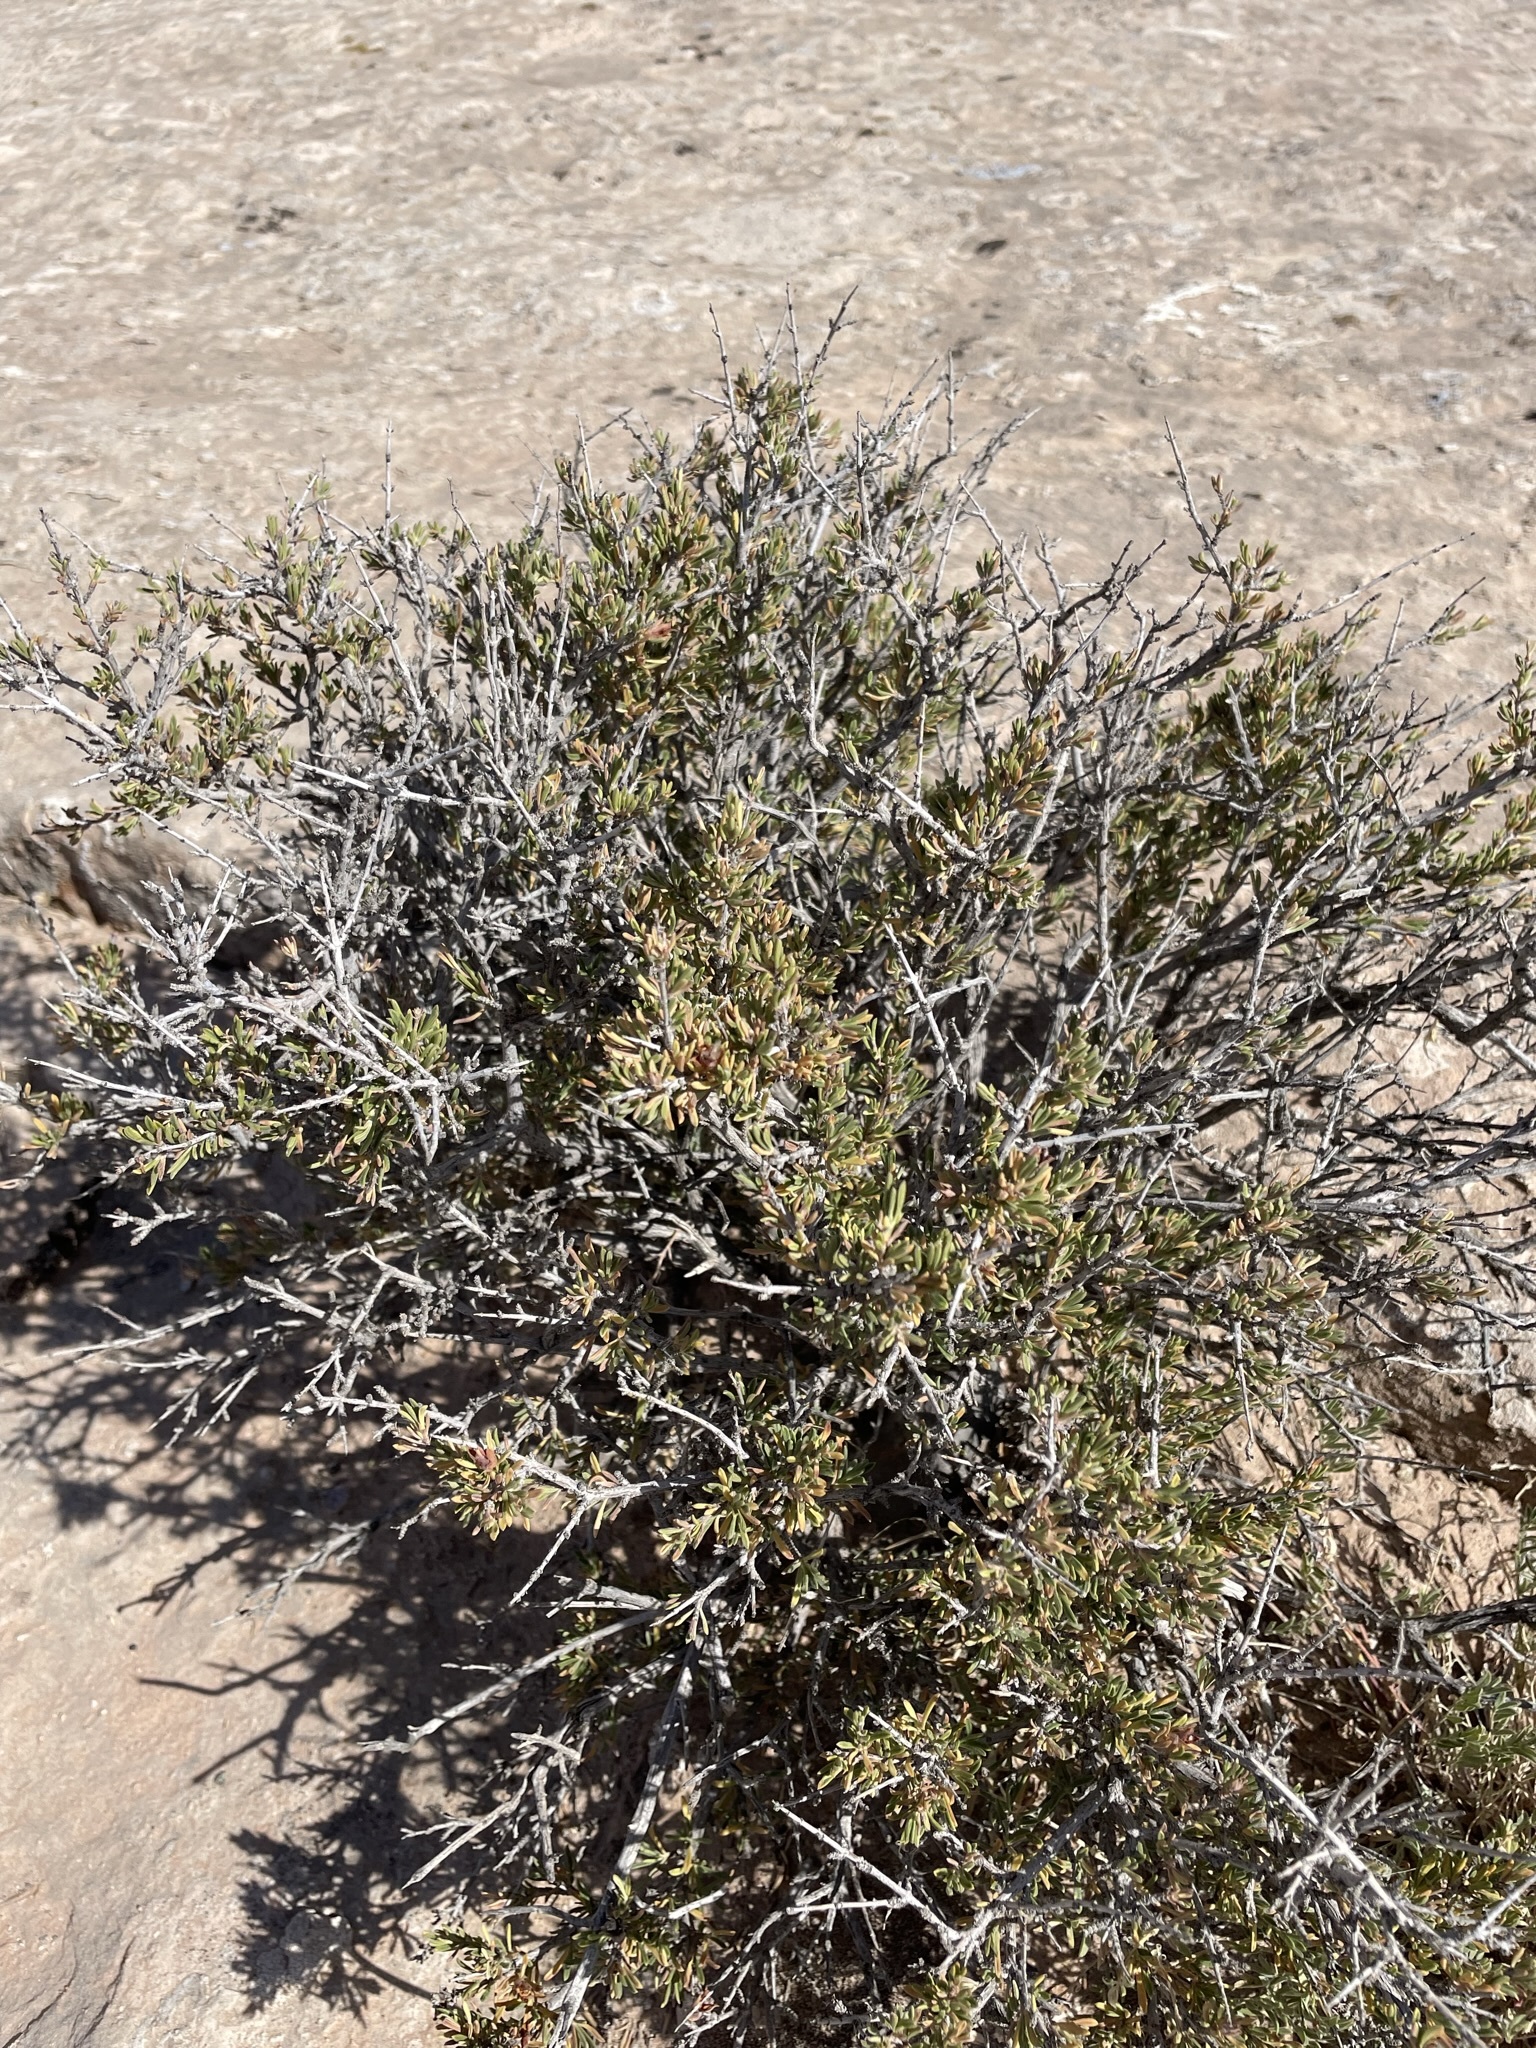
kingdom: Plantae
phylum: Tracheophyta
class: Magnoliopsida
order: Rosales
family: Rosaceae
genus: Coleogyne
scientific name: Coleogyne ramosissima
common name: Blackbrush
